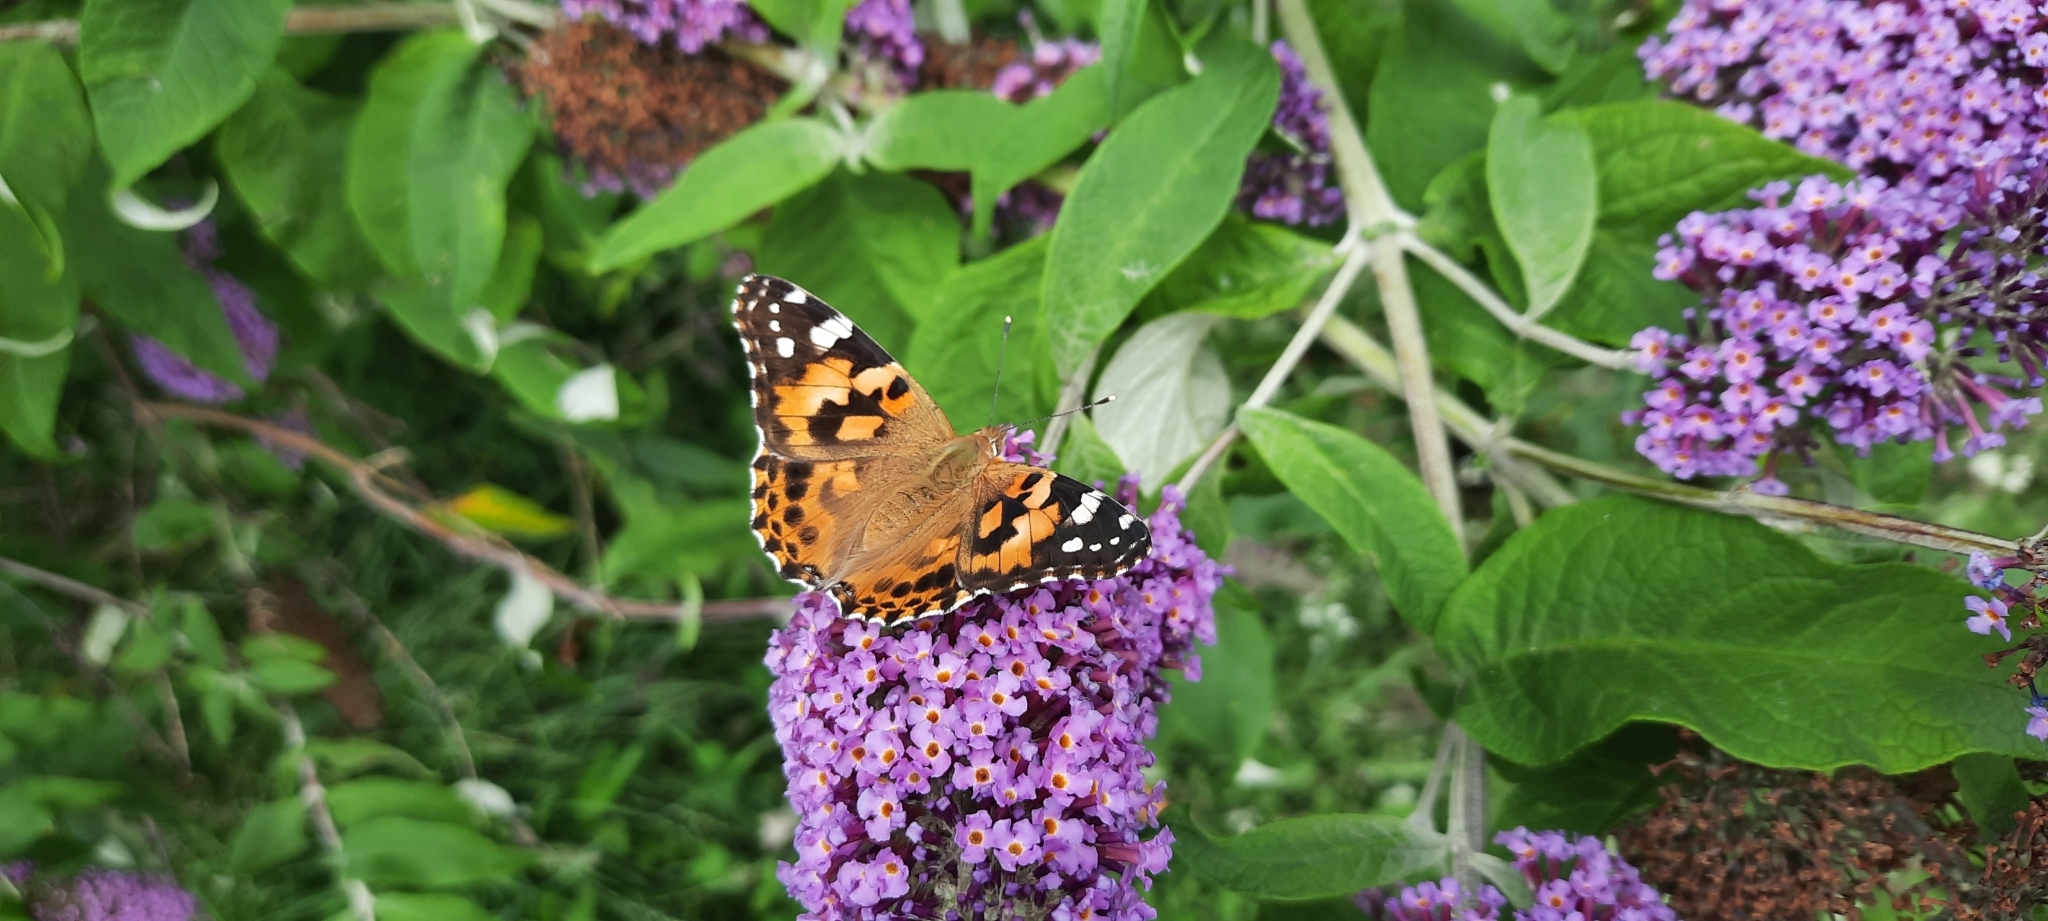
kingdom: Animalia
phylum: Arthropoda
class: Insecta
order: Lepidoptera
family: Nymphalidae
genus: Vanessa
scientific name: Vanessa cardui
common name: Painted lady
